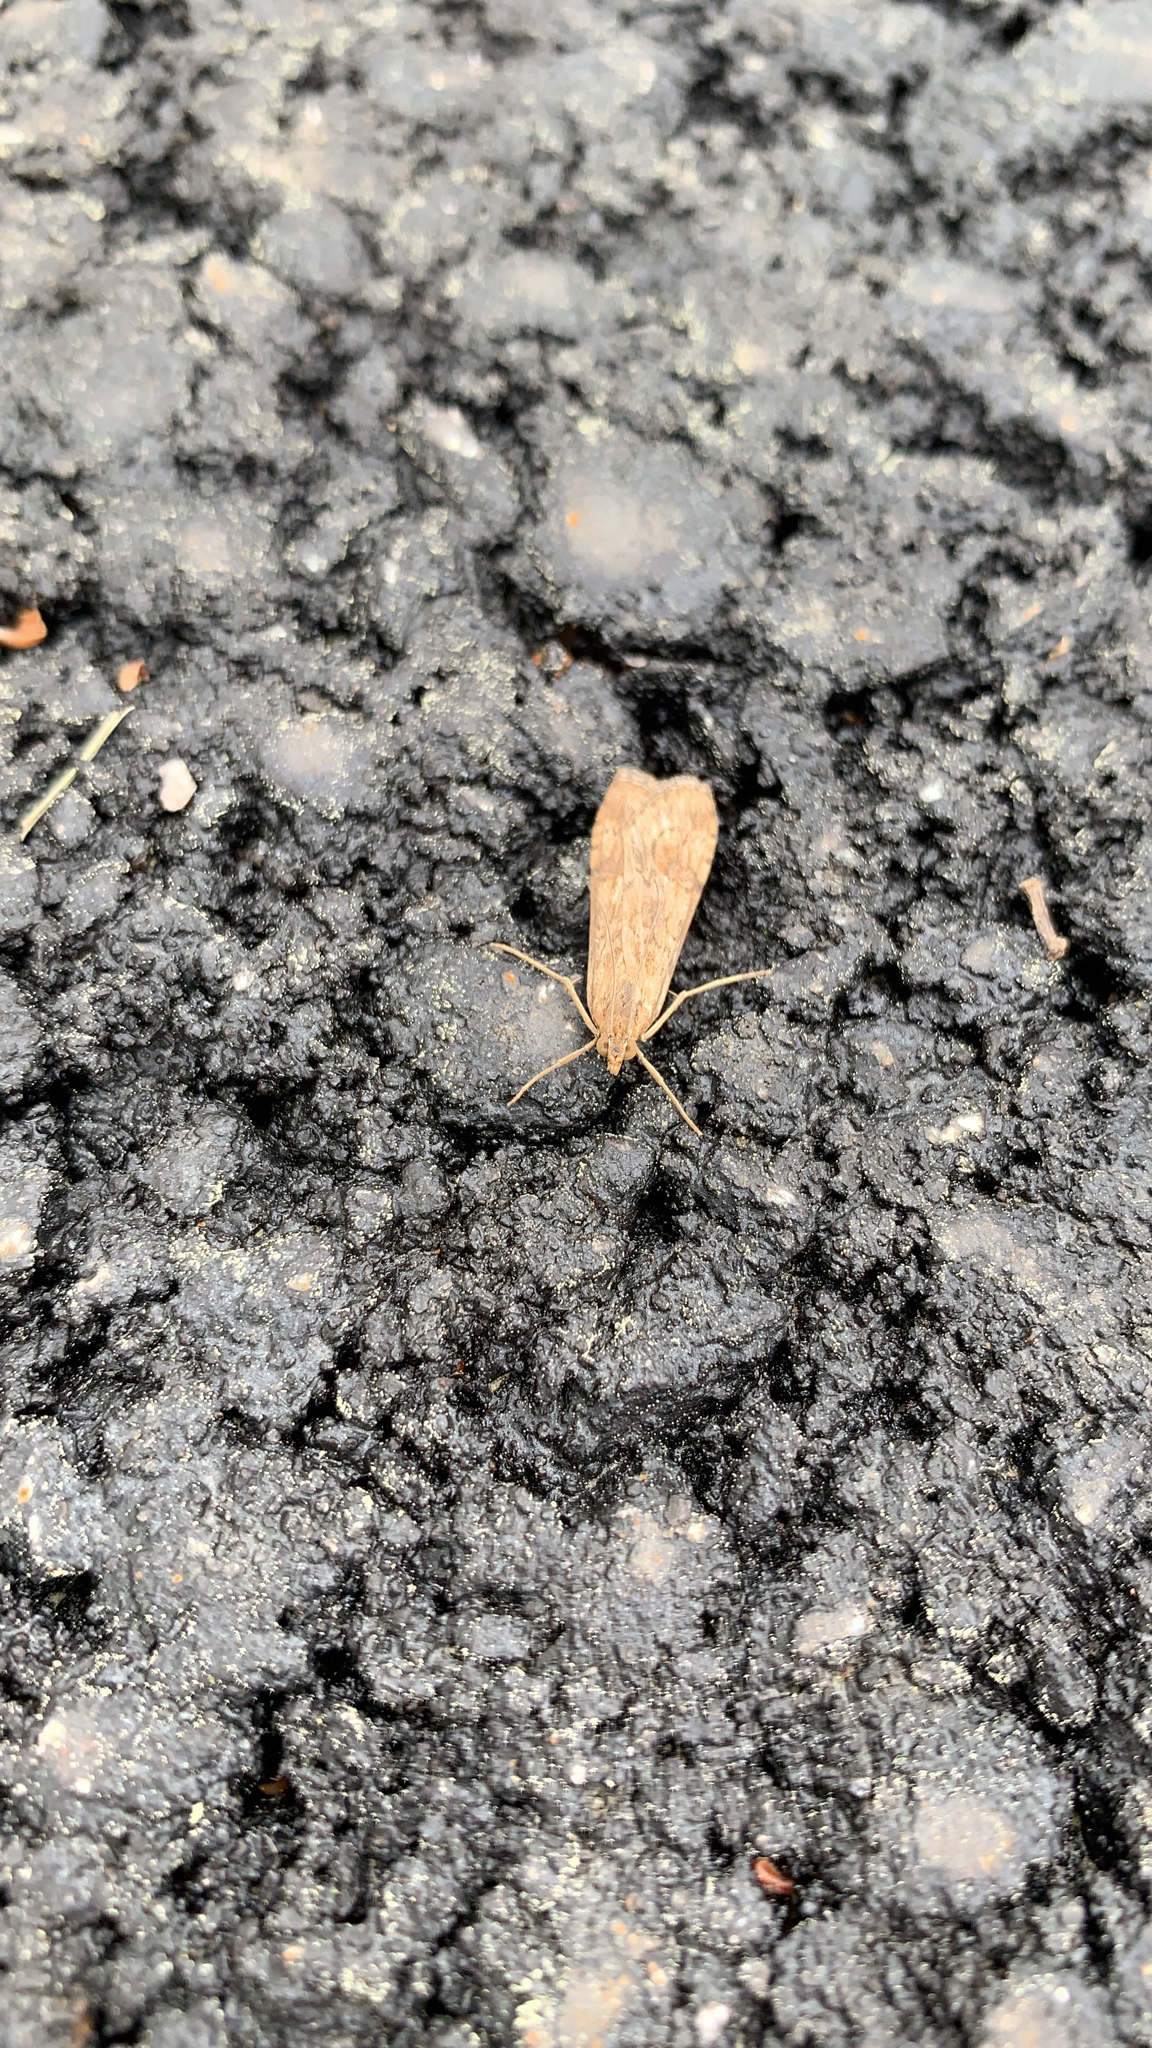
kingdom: Animalia
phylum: Arthropoda
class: Insecta
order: Lepidoptera
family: Crambidae
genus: Nomophila
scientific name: Nomophila nearctica
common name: American rush veneer
